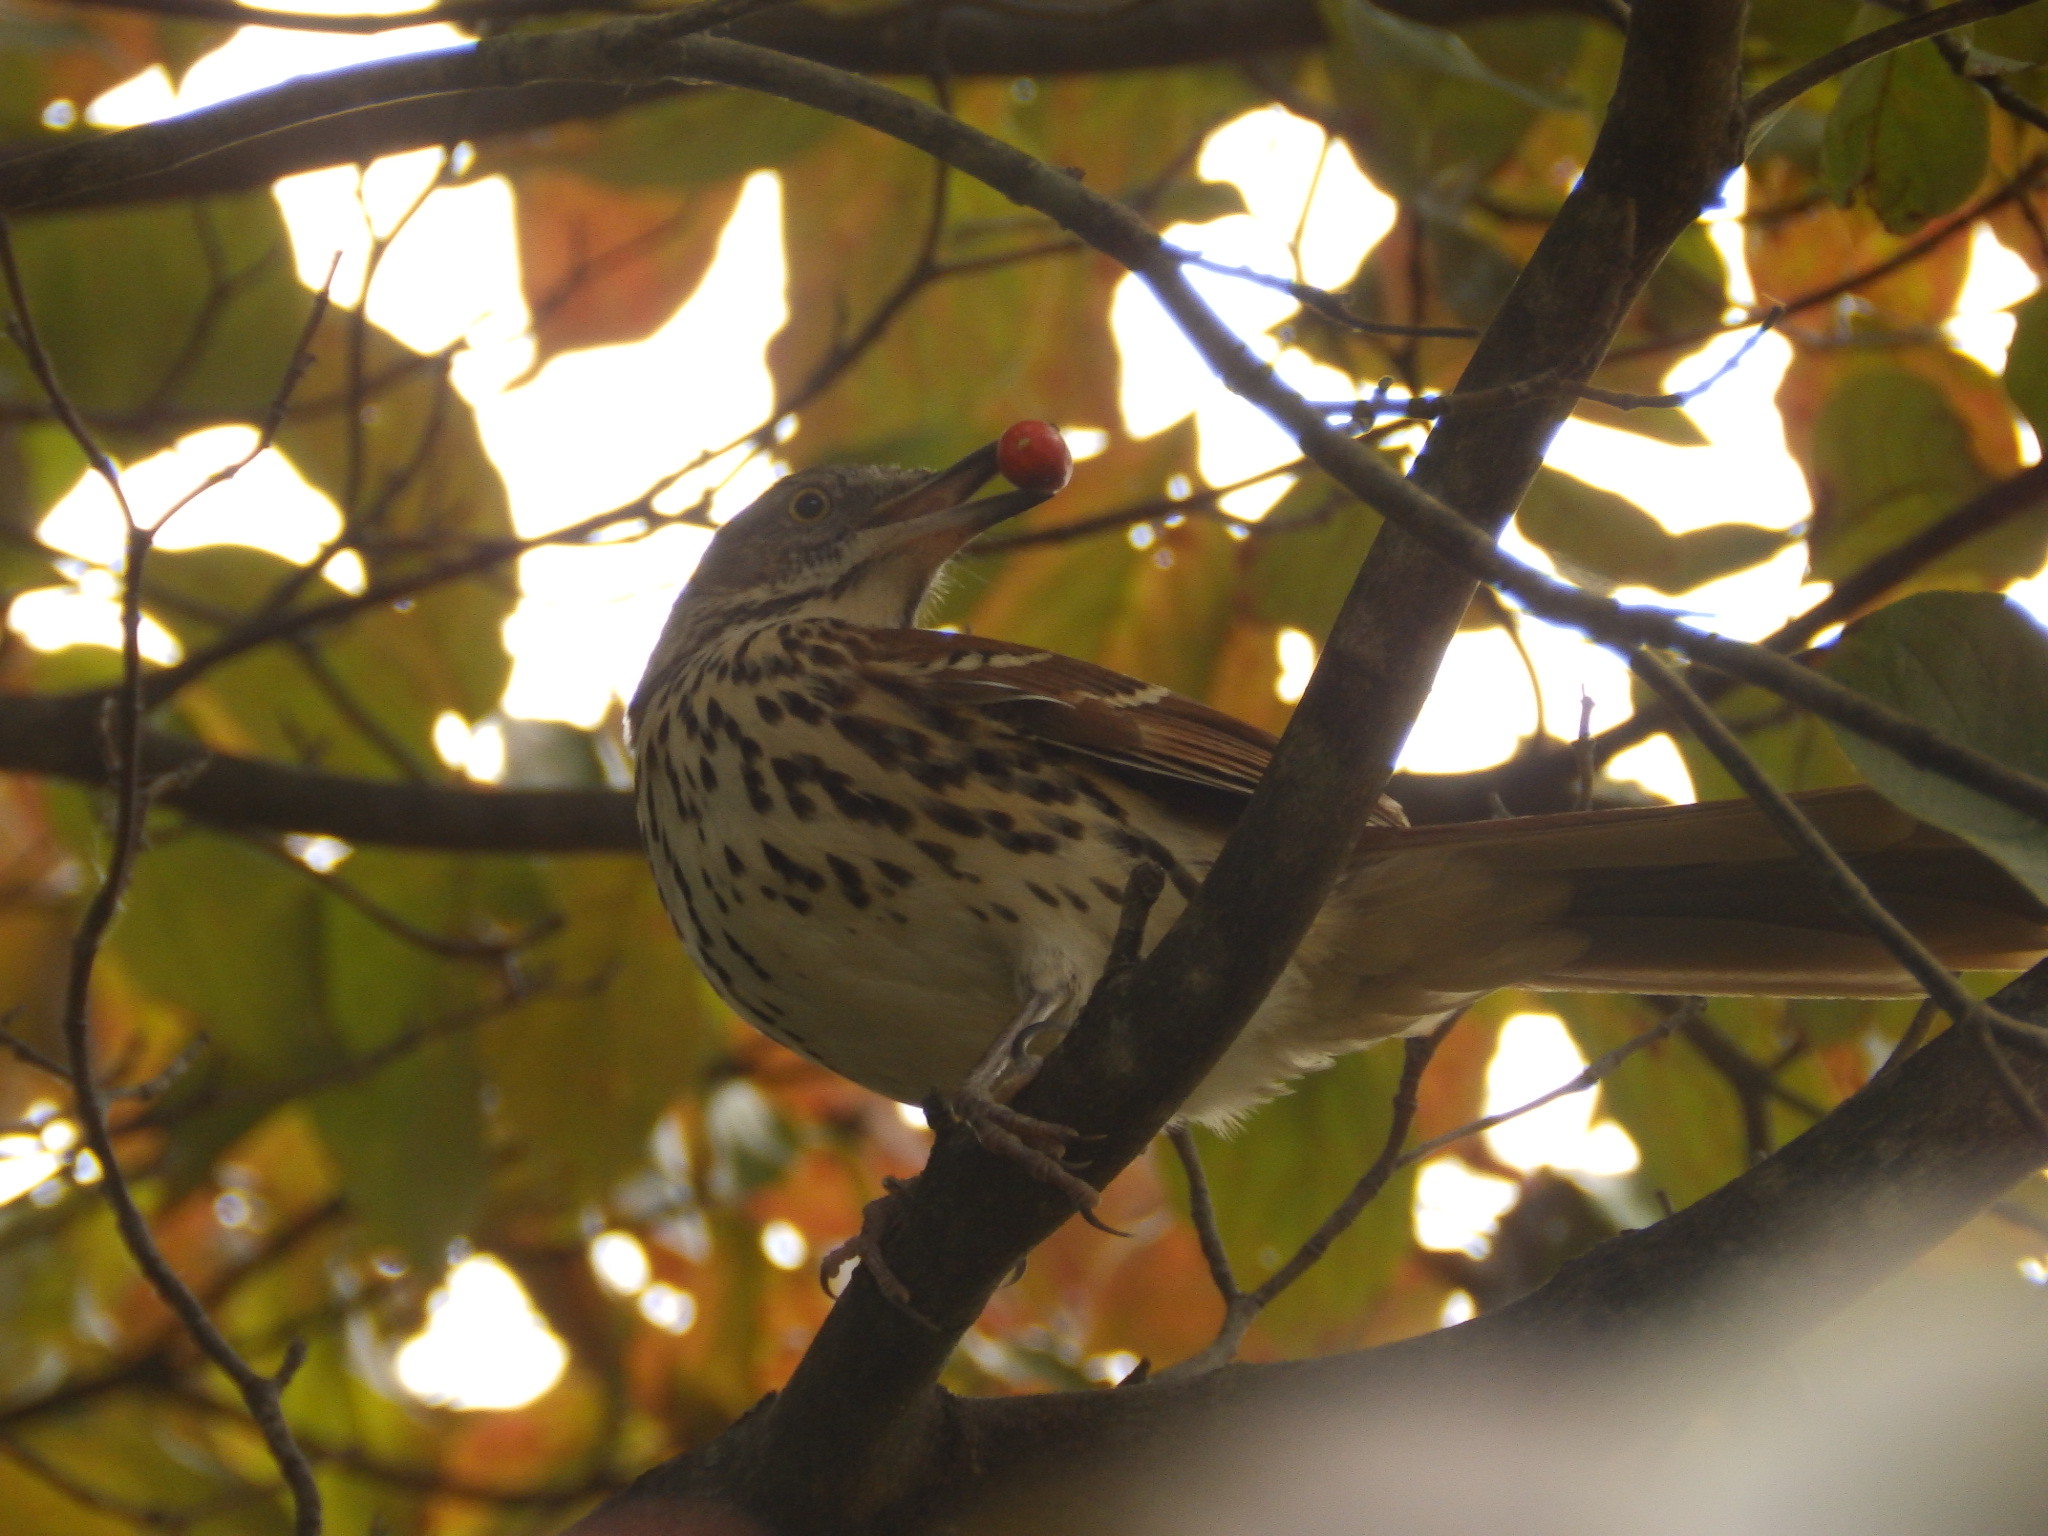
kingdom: Animalia
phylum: Chordata
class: Aves
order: Passeriformes
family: Mimidae
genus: Toxostoma
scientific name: Toxostoma rufum
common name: Brown thrasher
